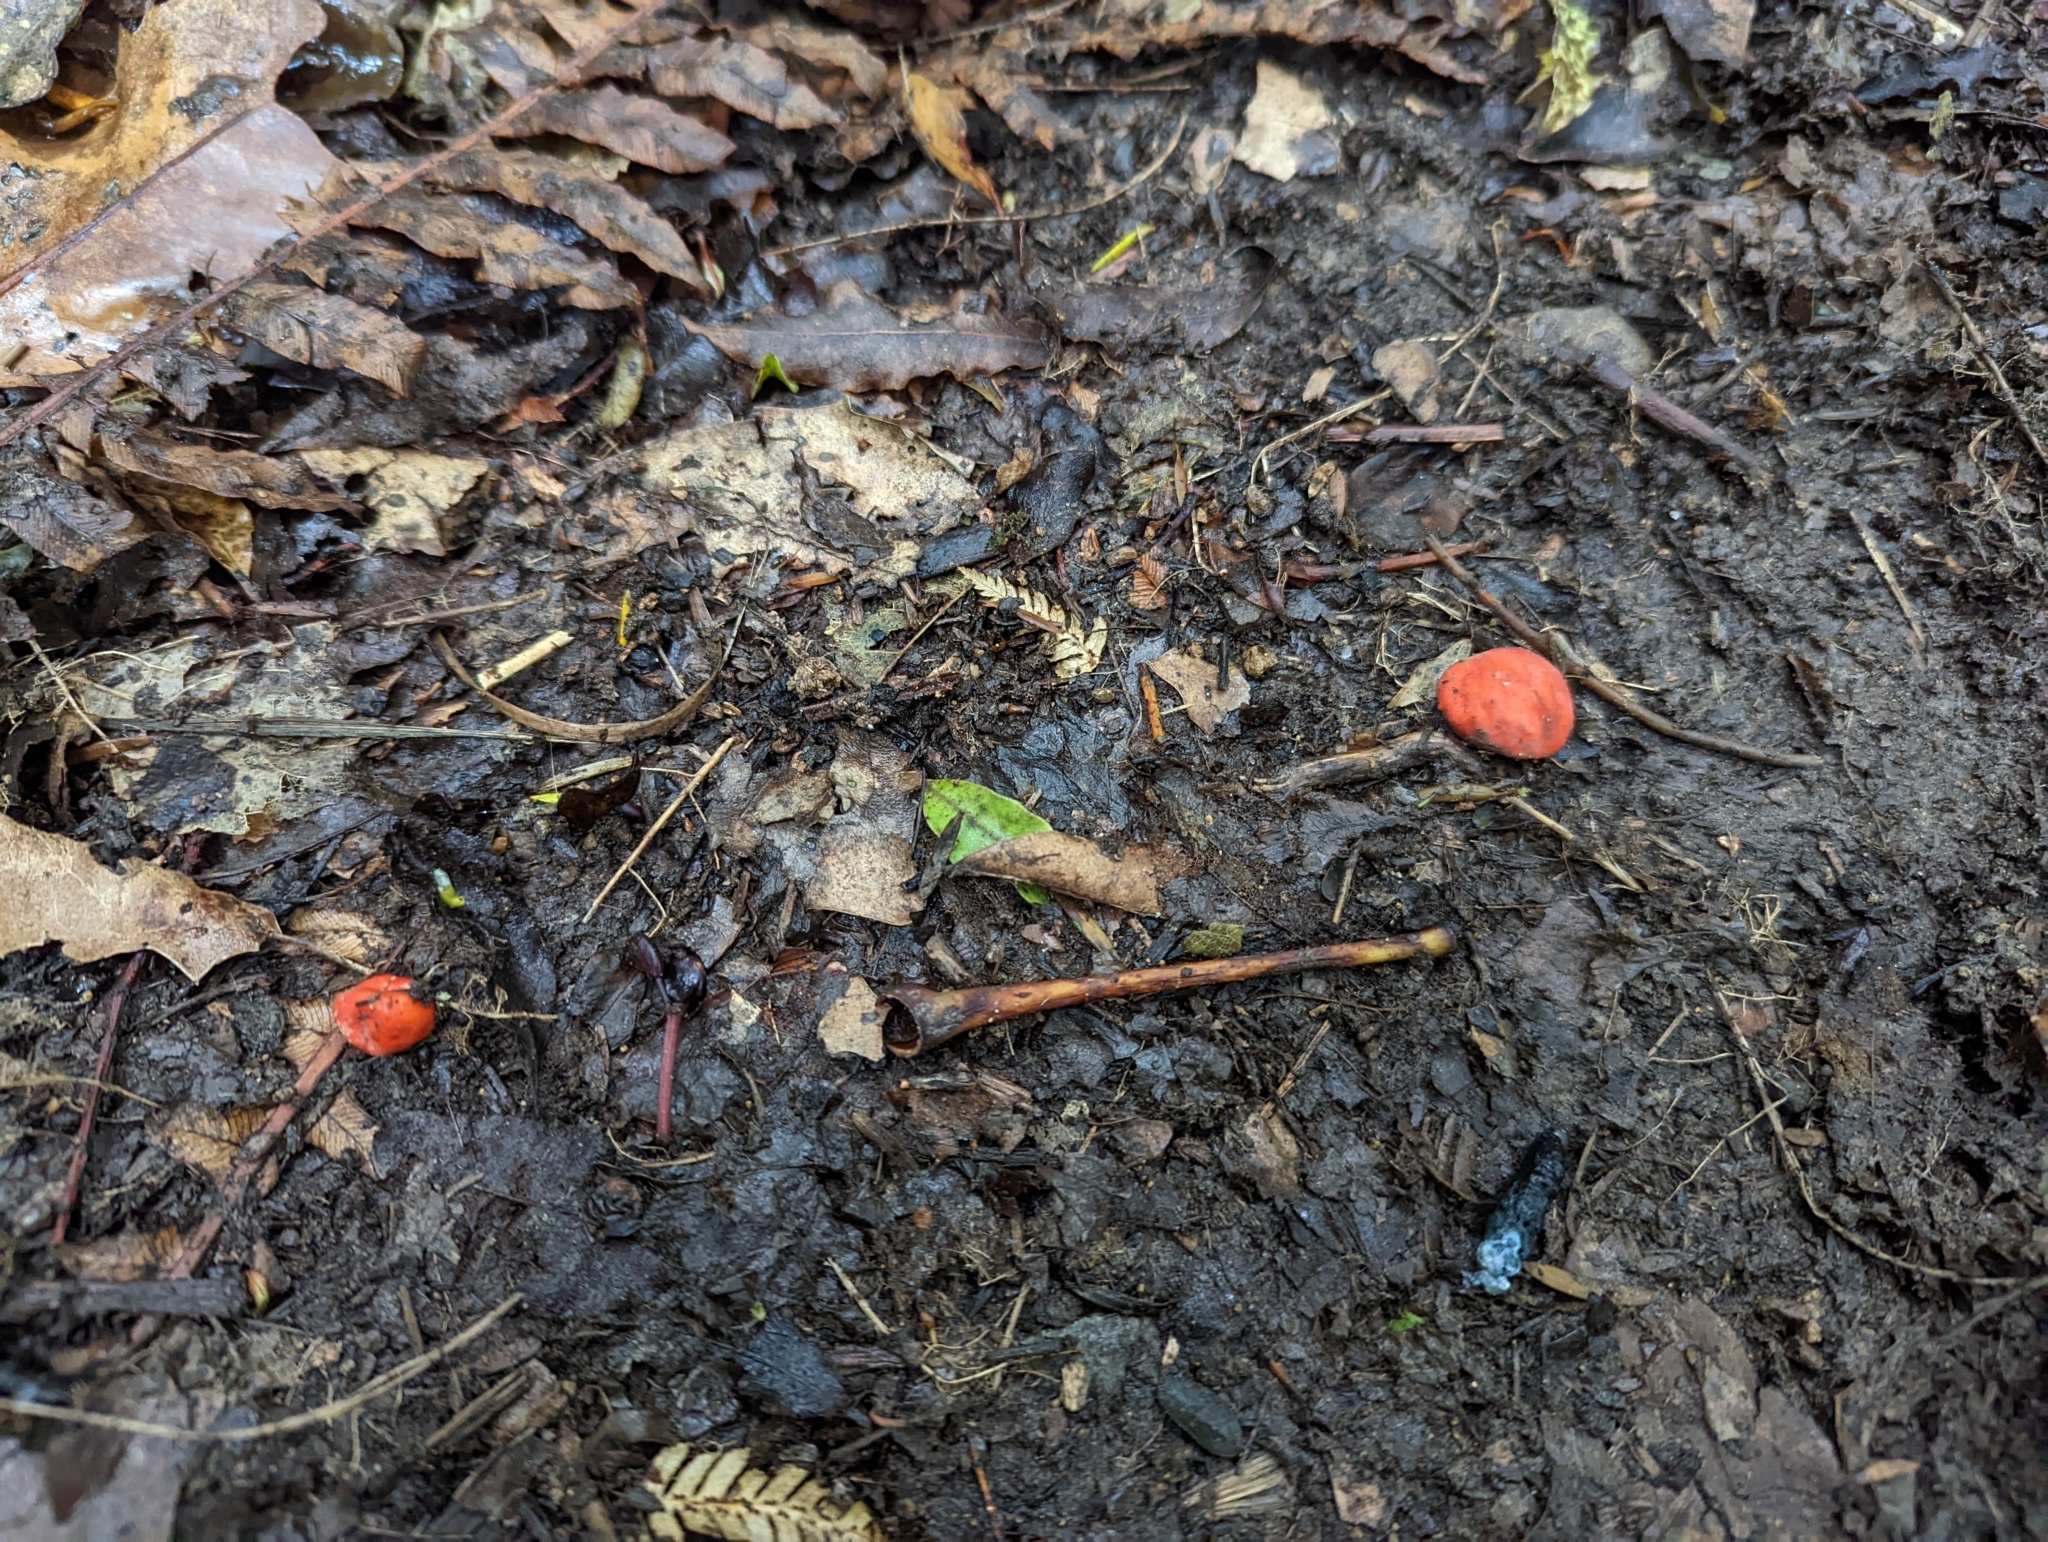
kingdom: Fungi
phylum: Ascomycota
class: Pezizomycetes
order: Pezizales
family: Pyronemataceae
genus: Paurocotylis
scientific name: Paurocotylis pila
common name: Scarlet berry truffle
